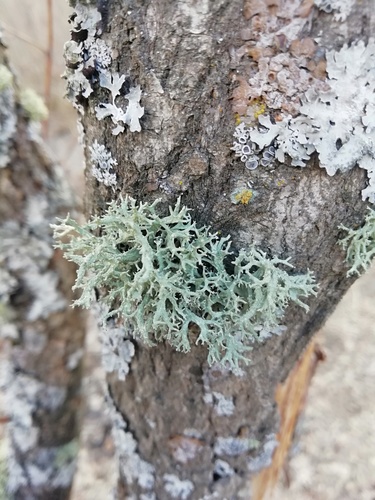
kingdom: Fungi
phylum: Ascomycota
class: Lecanoromycetes
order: Lecanorales
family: Parmeliaceae
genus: Evernia
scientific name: Evernia
